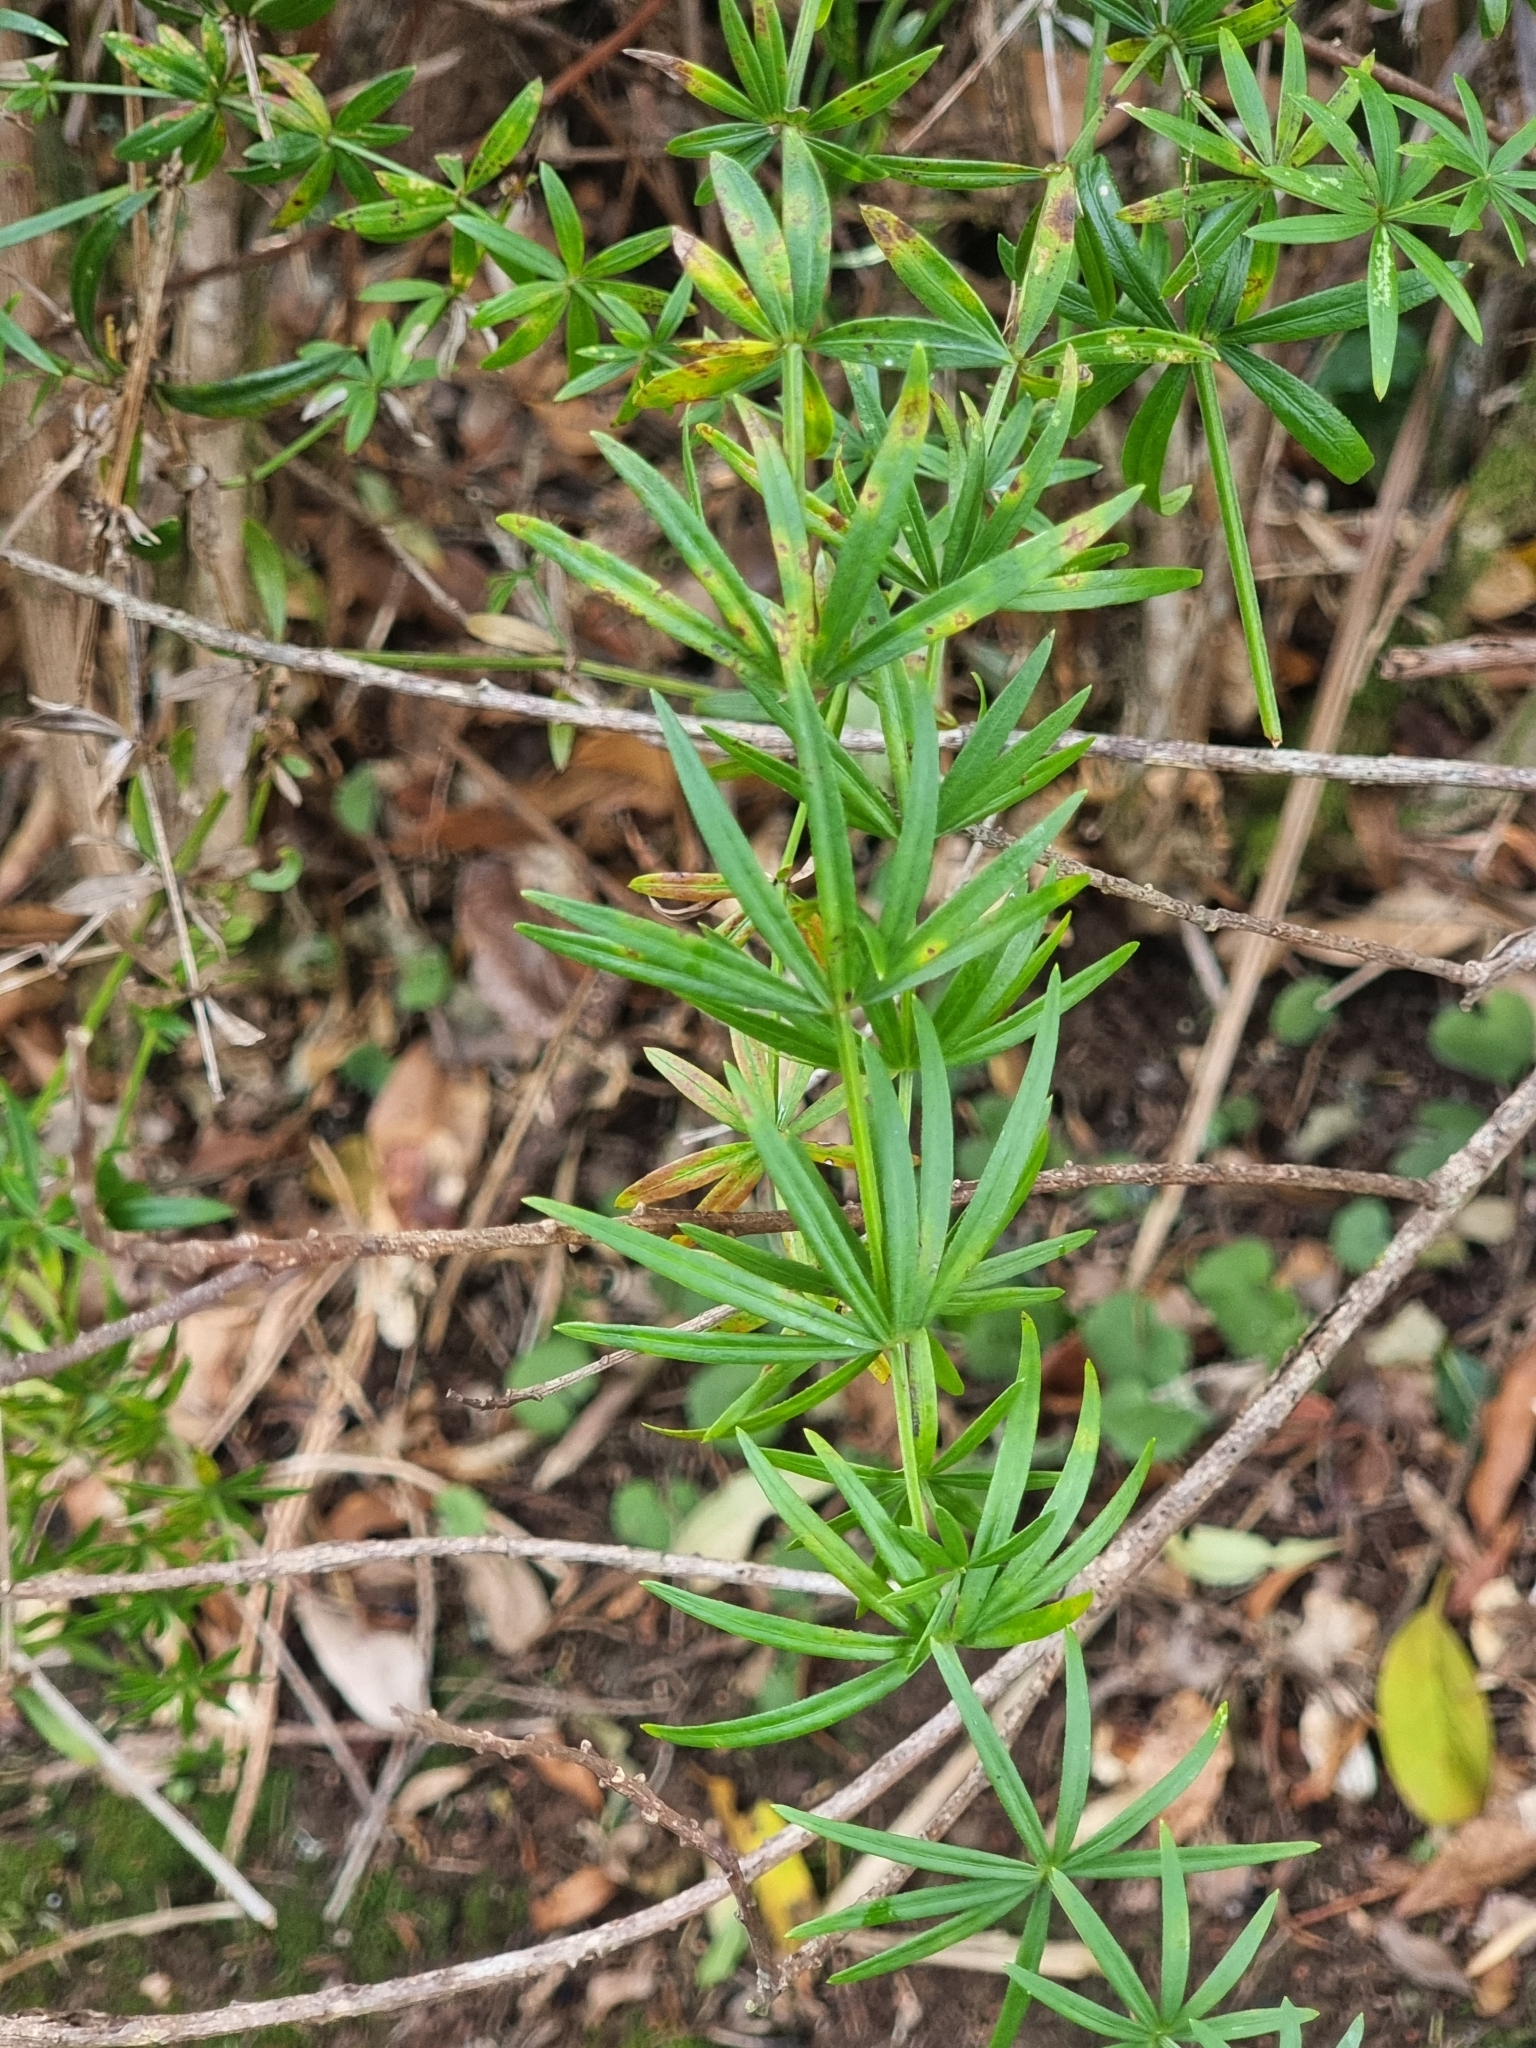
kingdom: Plantae
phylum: Tracheophyta
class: Magnoliopsida
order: Gentianales
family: Rubiaceae
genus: Rubia
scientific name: Rubia occidens
